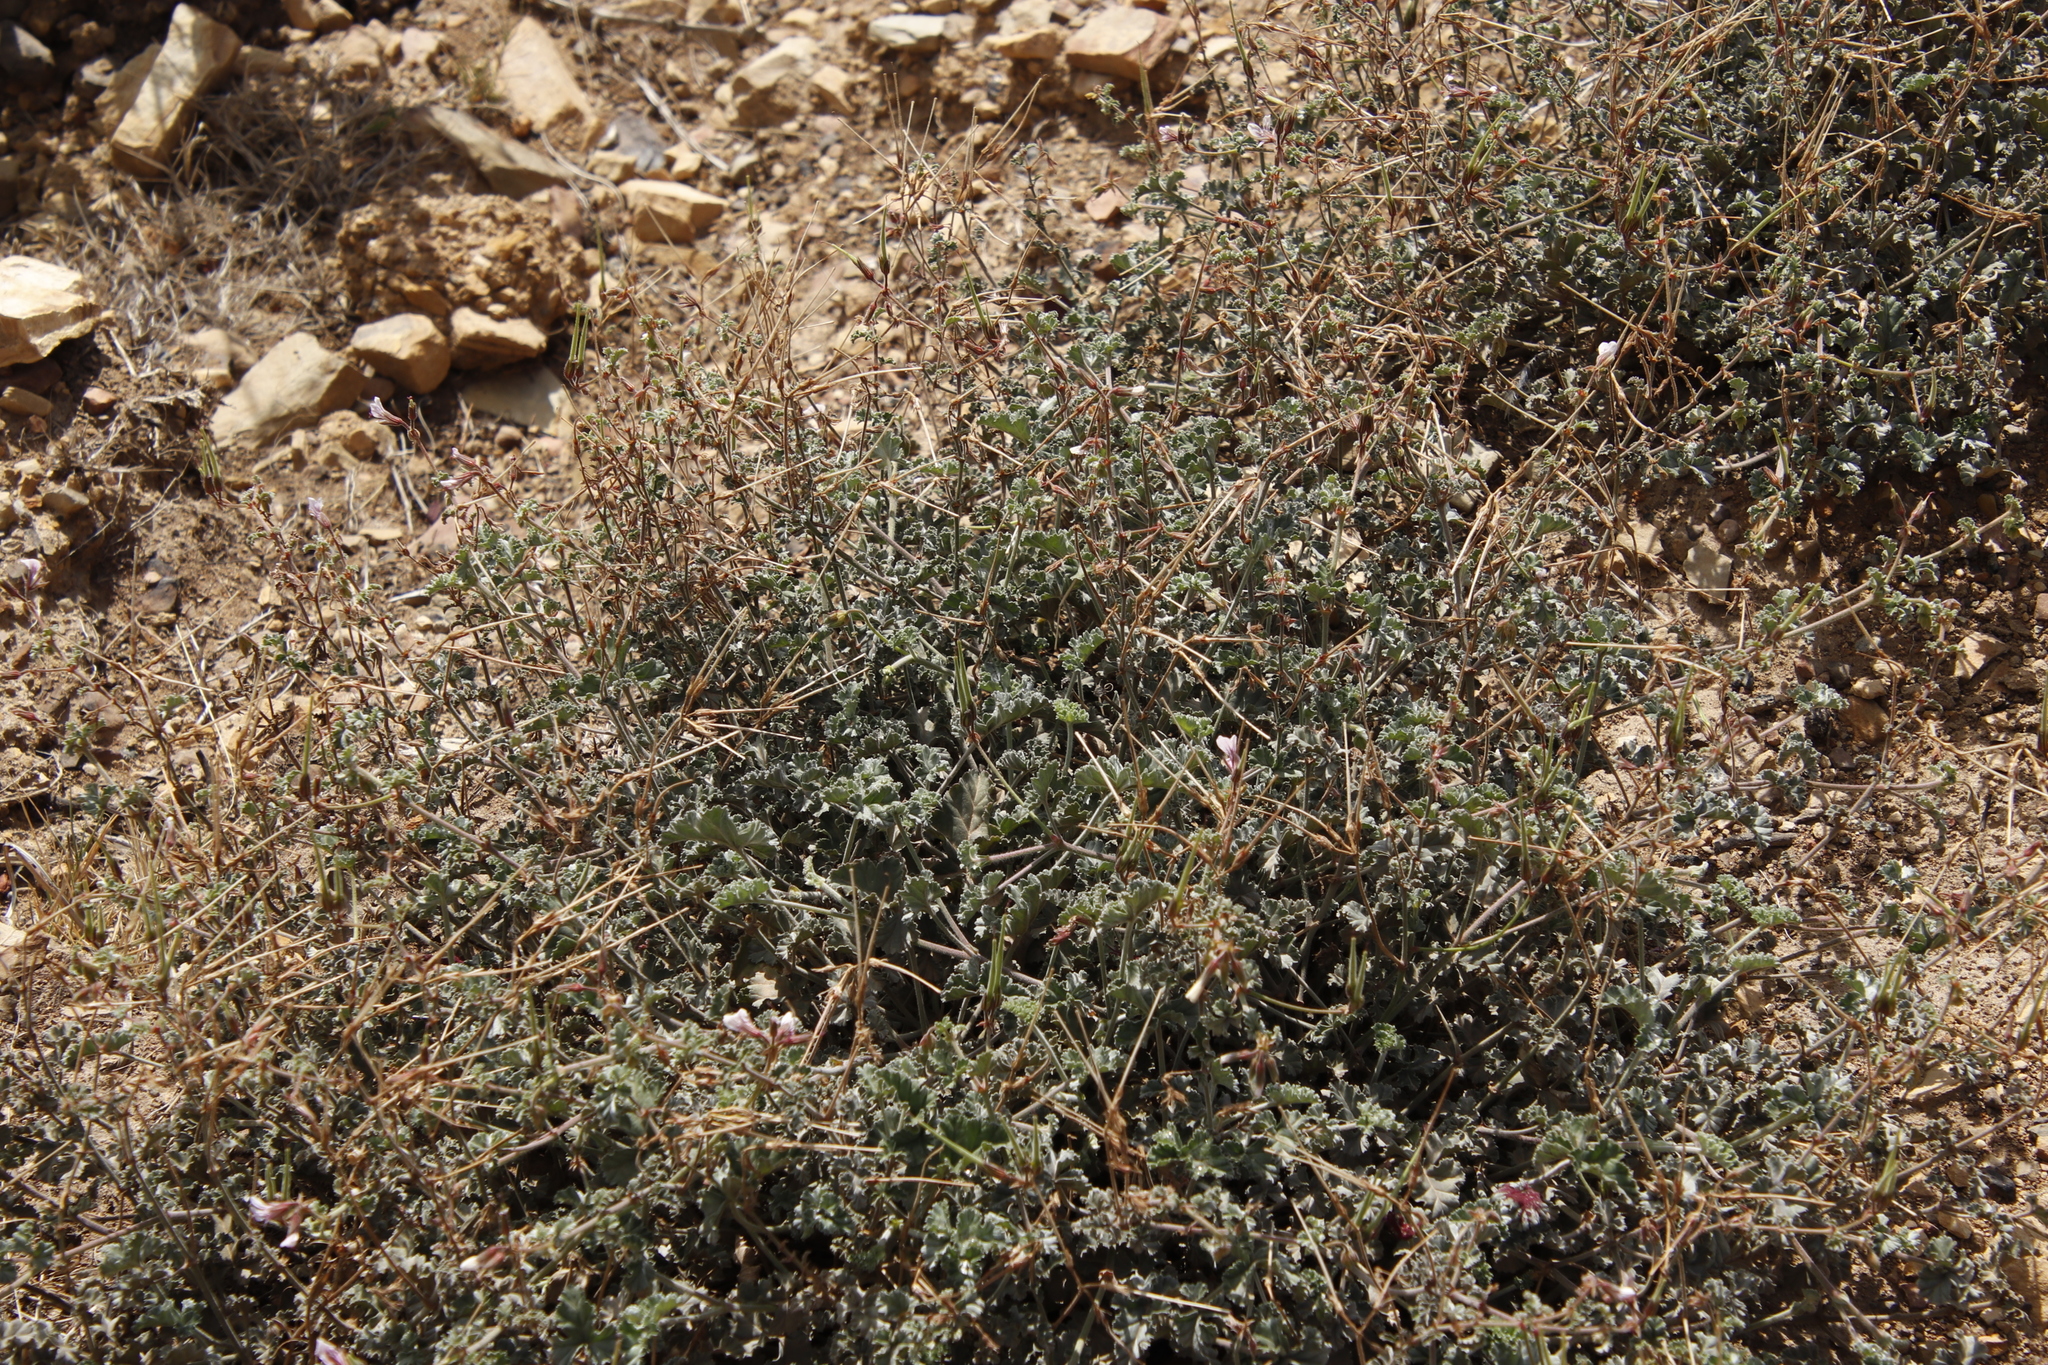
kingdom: Plantae
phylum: Tracheophyta
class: Magnoliopsida
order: Geraniales
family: Geraniaceae
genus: Pelargonium
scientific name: Pelargonium candicans
